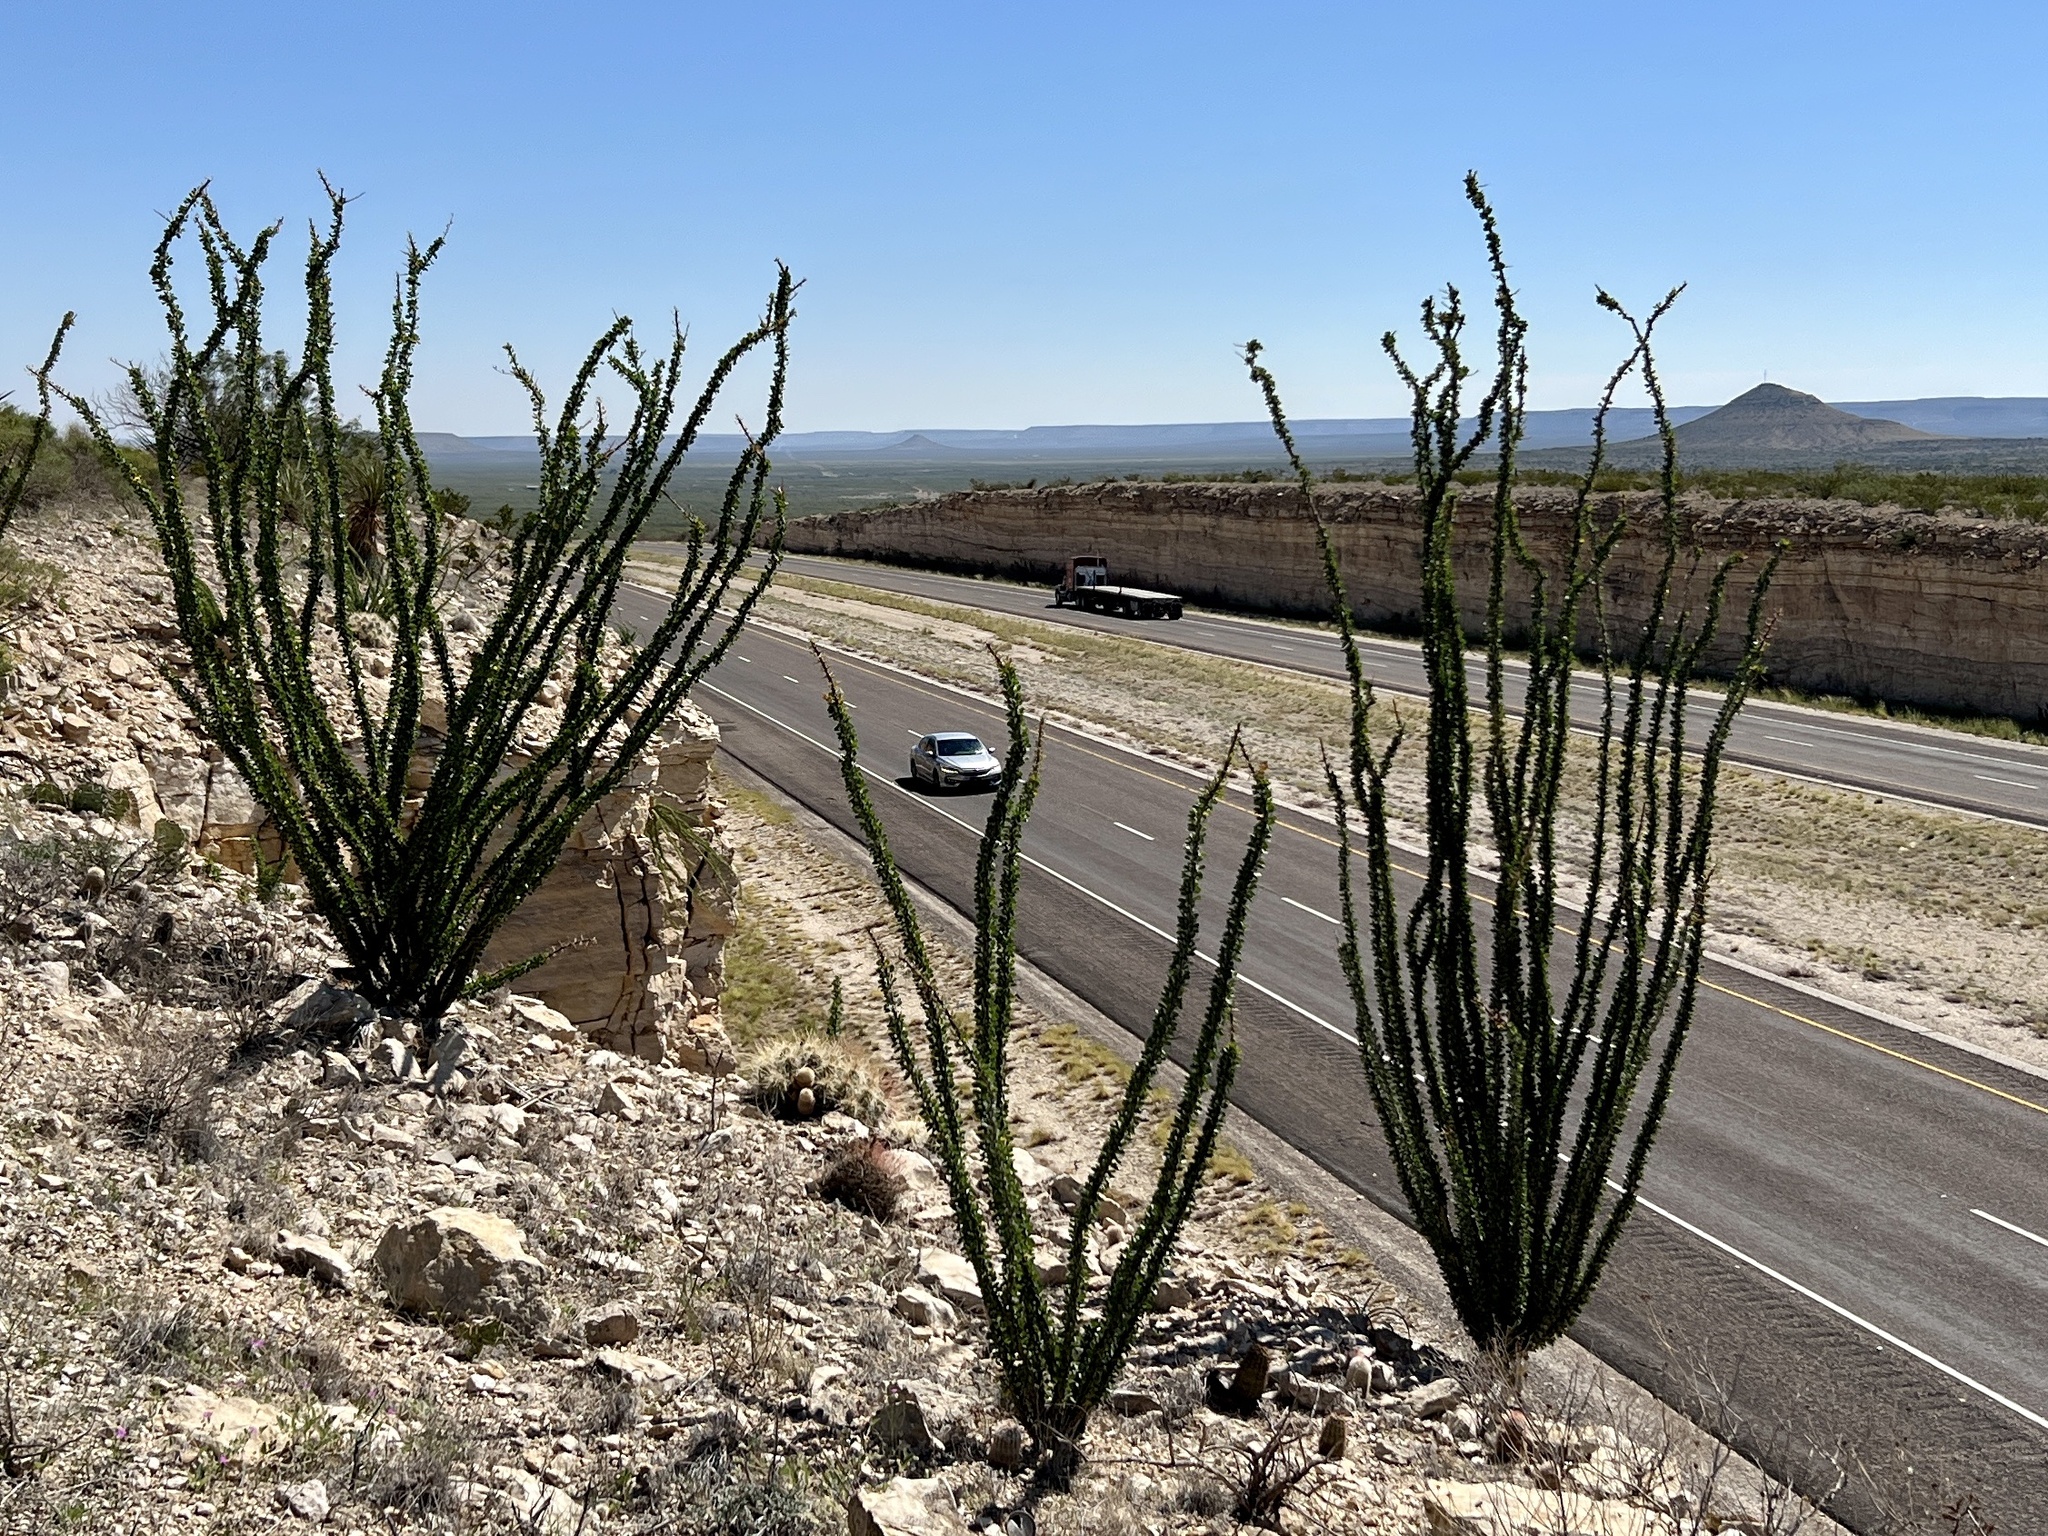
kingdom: Plantae
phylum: Tracheophyta
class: Magnoliopsida
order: Ericales
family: Fouquieriaceae
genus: Fouquieria
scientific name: Fouquieria splendens
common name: Vine-cactus
